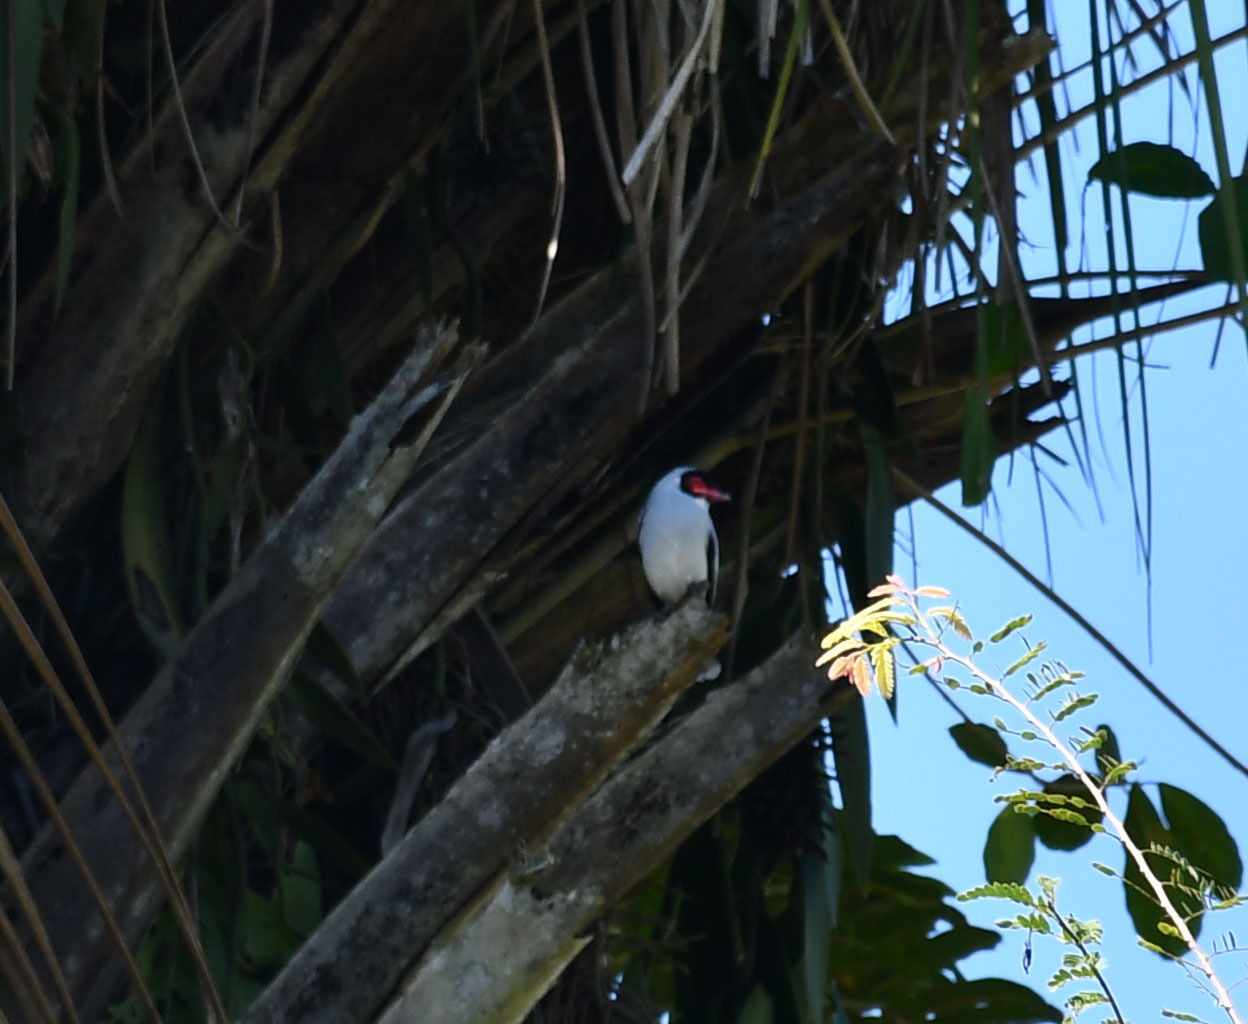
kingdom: Animalia
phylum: Chordata
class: Aves
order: Passeriformes
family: Cotingidae
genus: Tityra
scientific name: Tityra semifasciata
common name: Masked tityra
